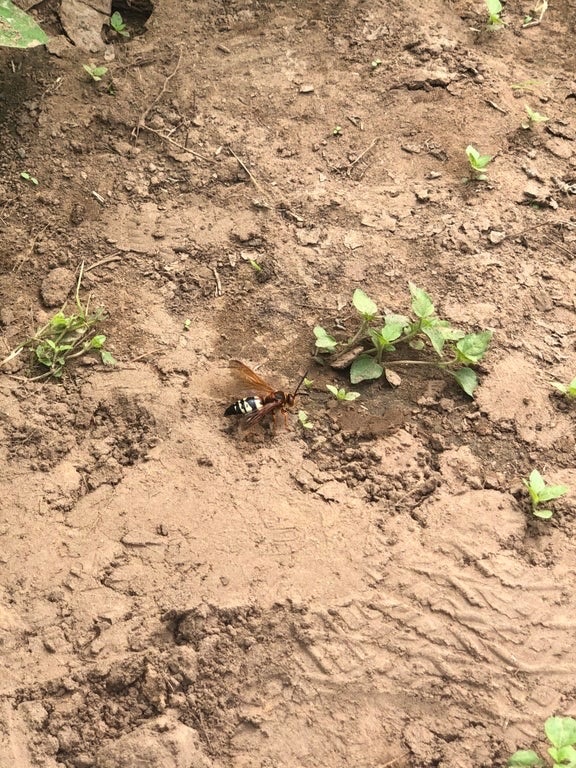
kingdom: Animalia
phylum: Arthropoda
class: Insecta
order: Hymenoptera
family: Crabronidae
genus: Sphecius
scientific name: Sphecius speciosus
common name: Cicada killer
